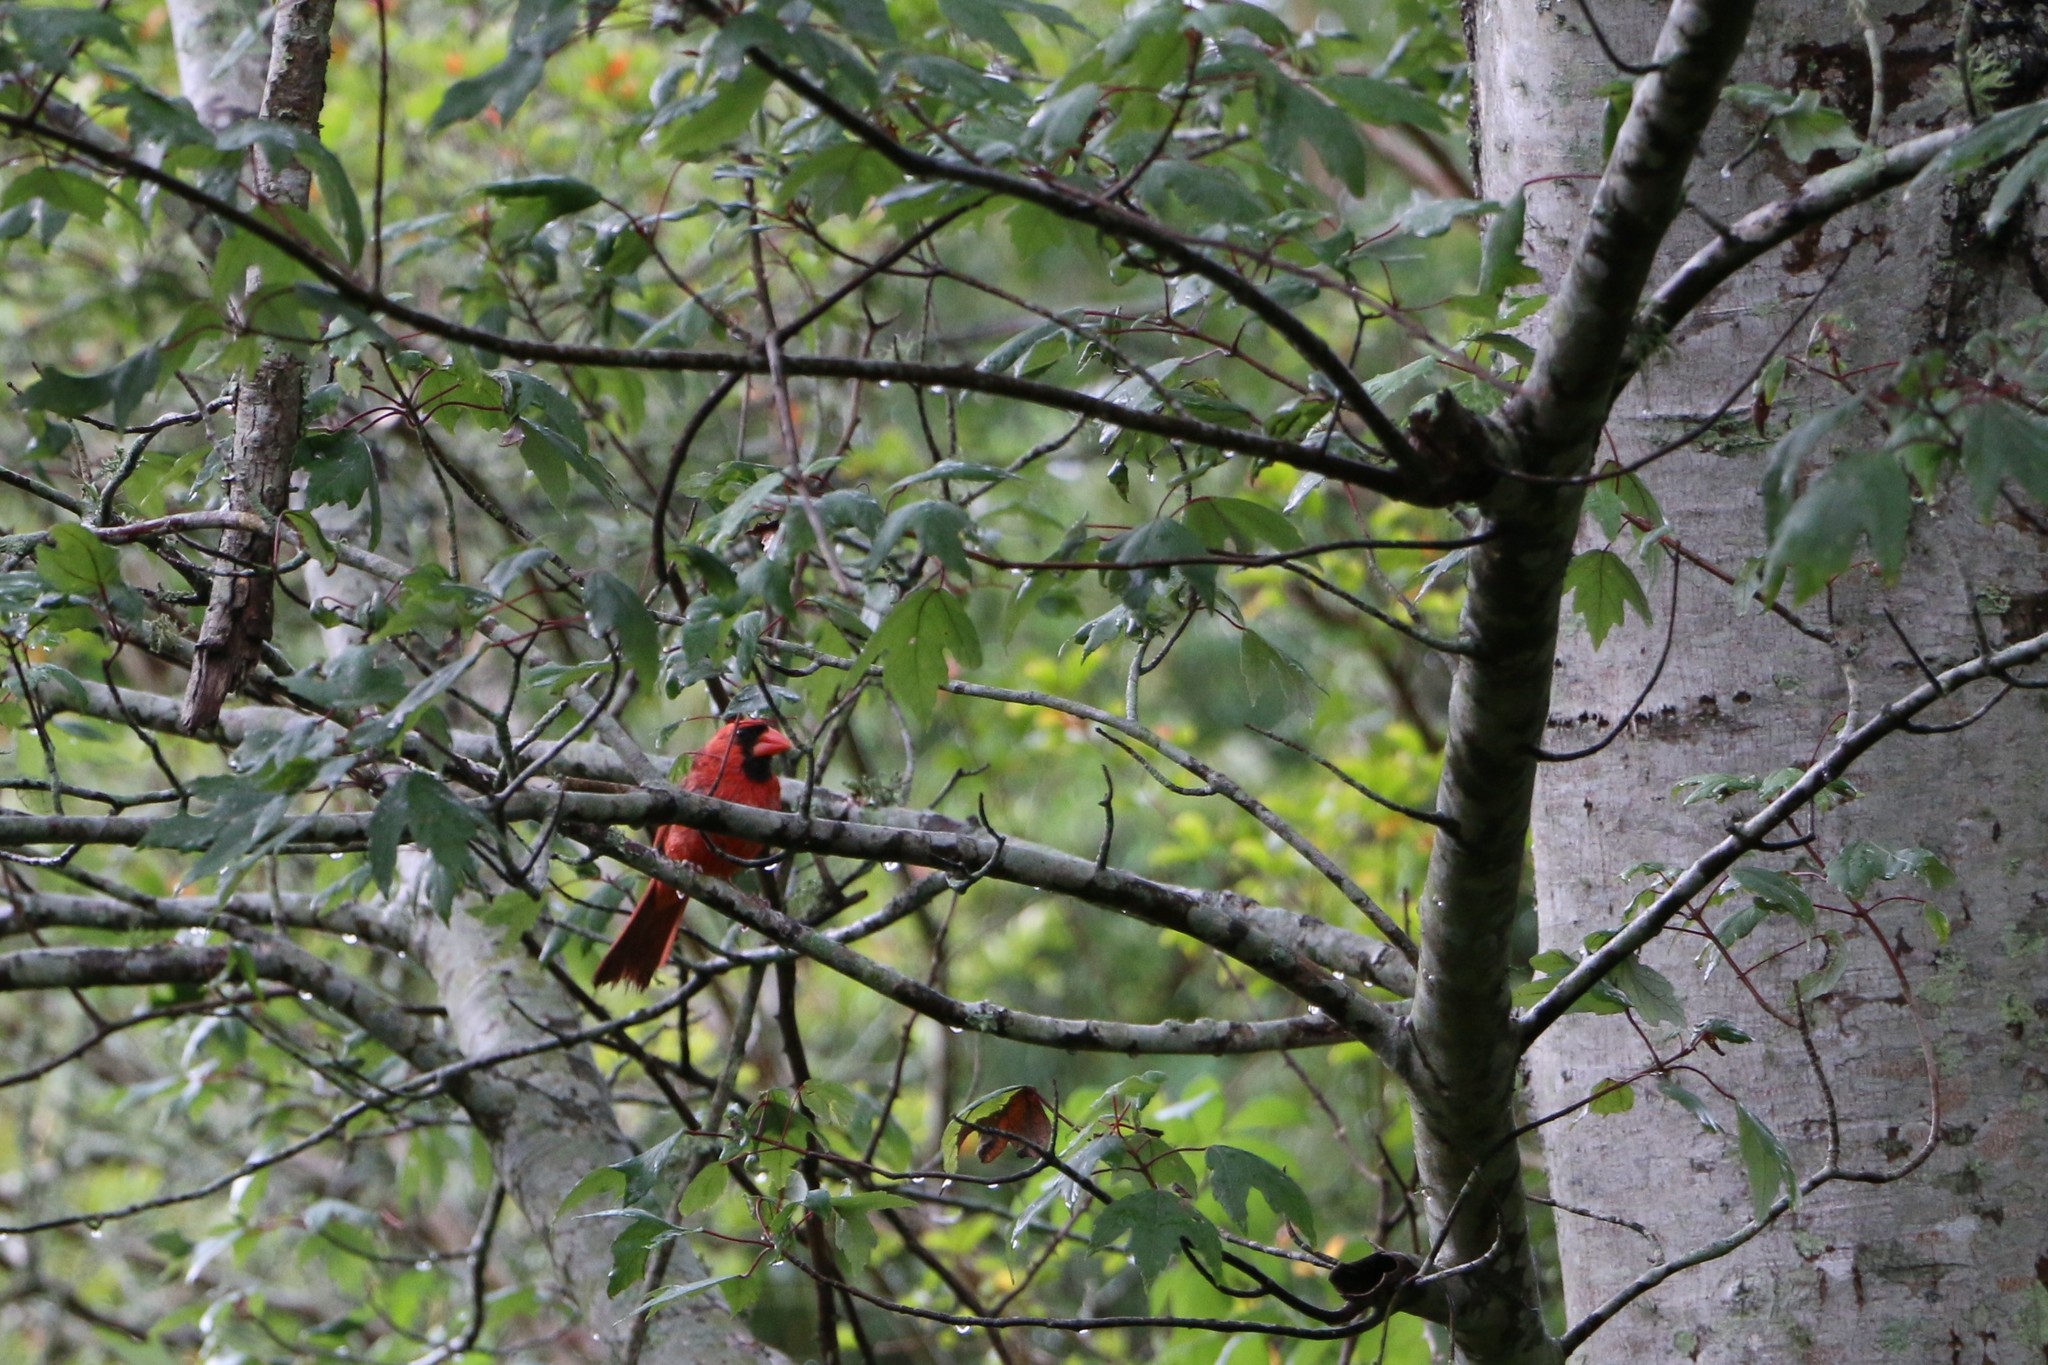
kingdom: Animalia
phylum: Chordata
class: Aves
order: Passeriformes
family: Cardinalidae
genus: Cardinalis
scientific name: Cardinalis cardinalis
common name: Northern cardinal
